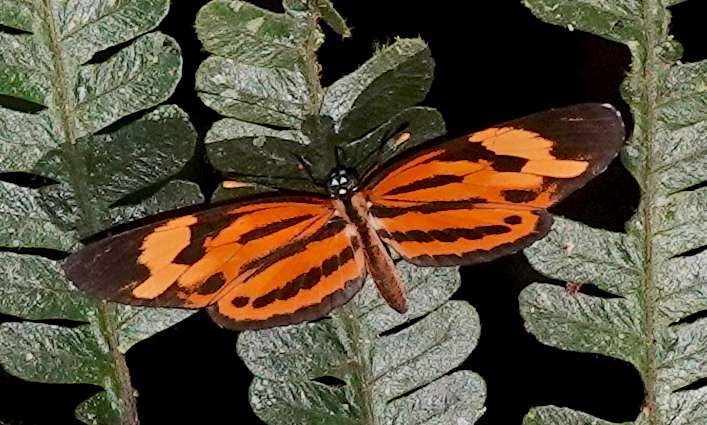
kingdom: Animalia
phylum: Arthropoda
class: Insecta
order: Lepidoptera
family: Nymphalidae
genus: Eresia
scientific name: Eresia eunice
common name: Tiger crescent
